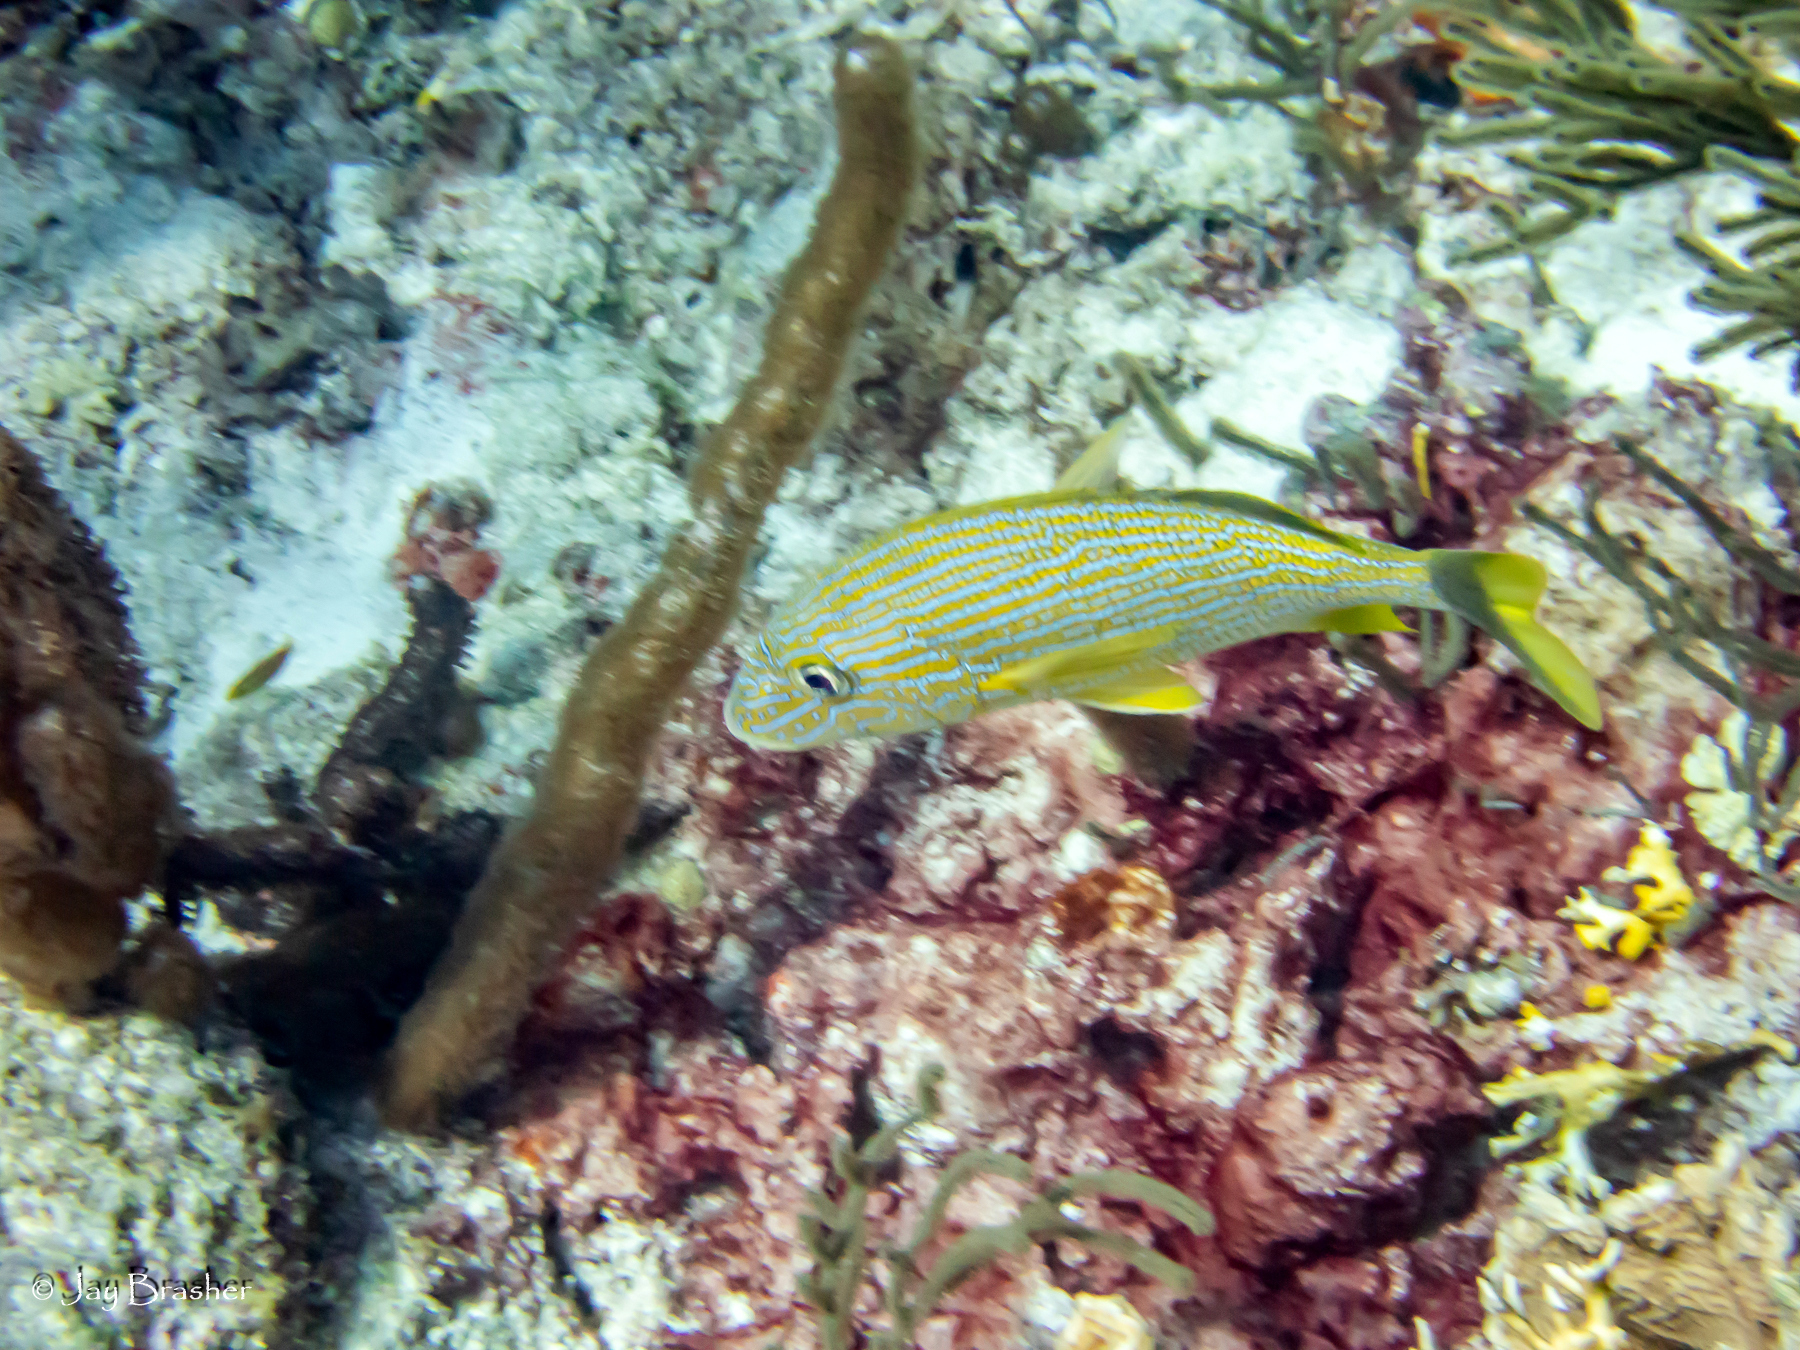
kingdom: Animalia
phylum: Chordata
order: Perciformes
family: Haemulidae
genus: Haemulon
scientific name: Haemulon sciurus
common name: Bluestriped grunt
